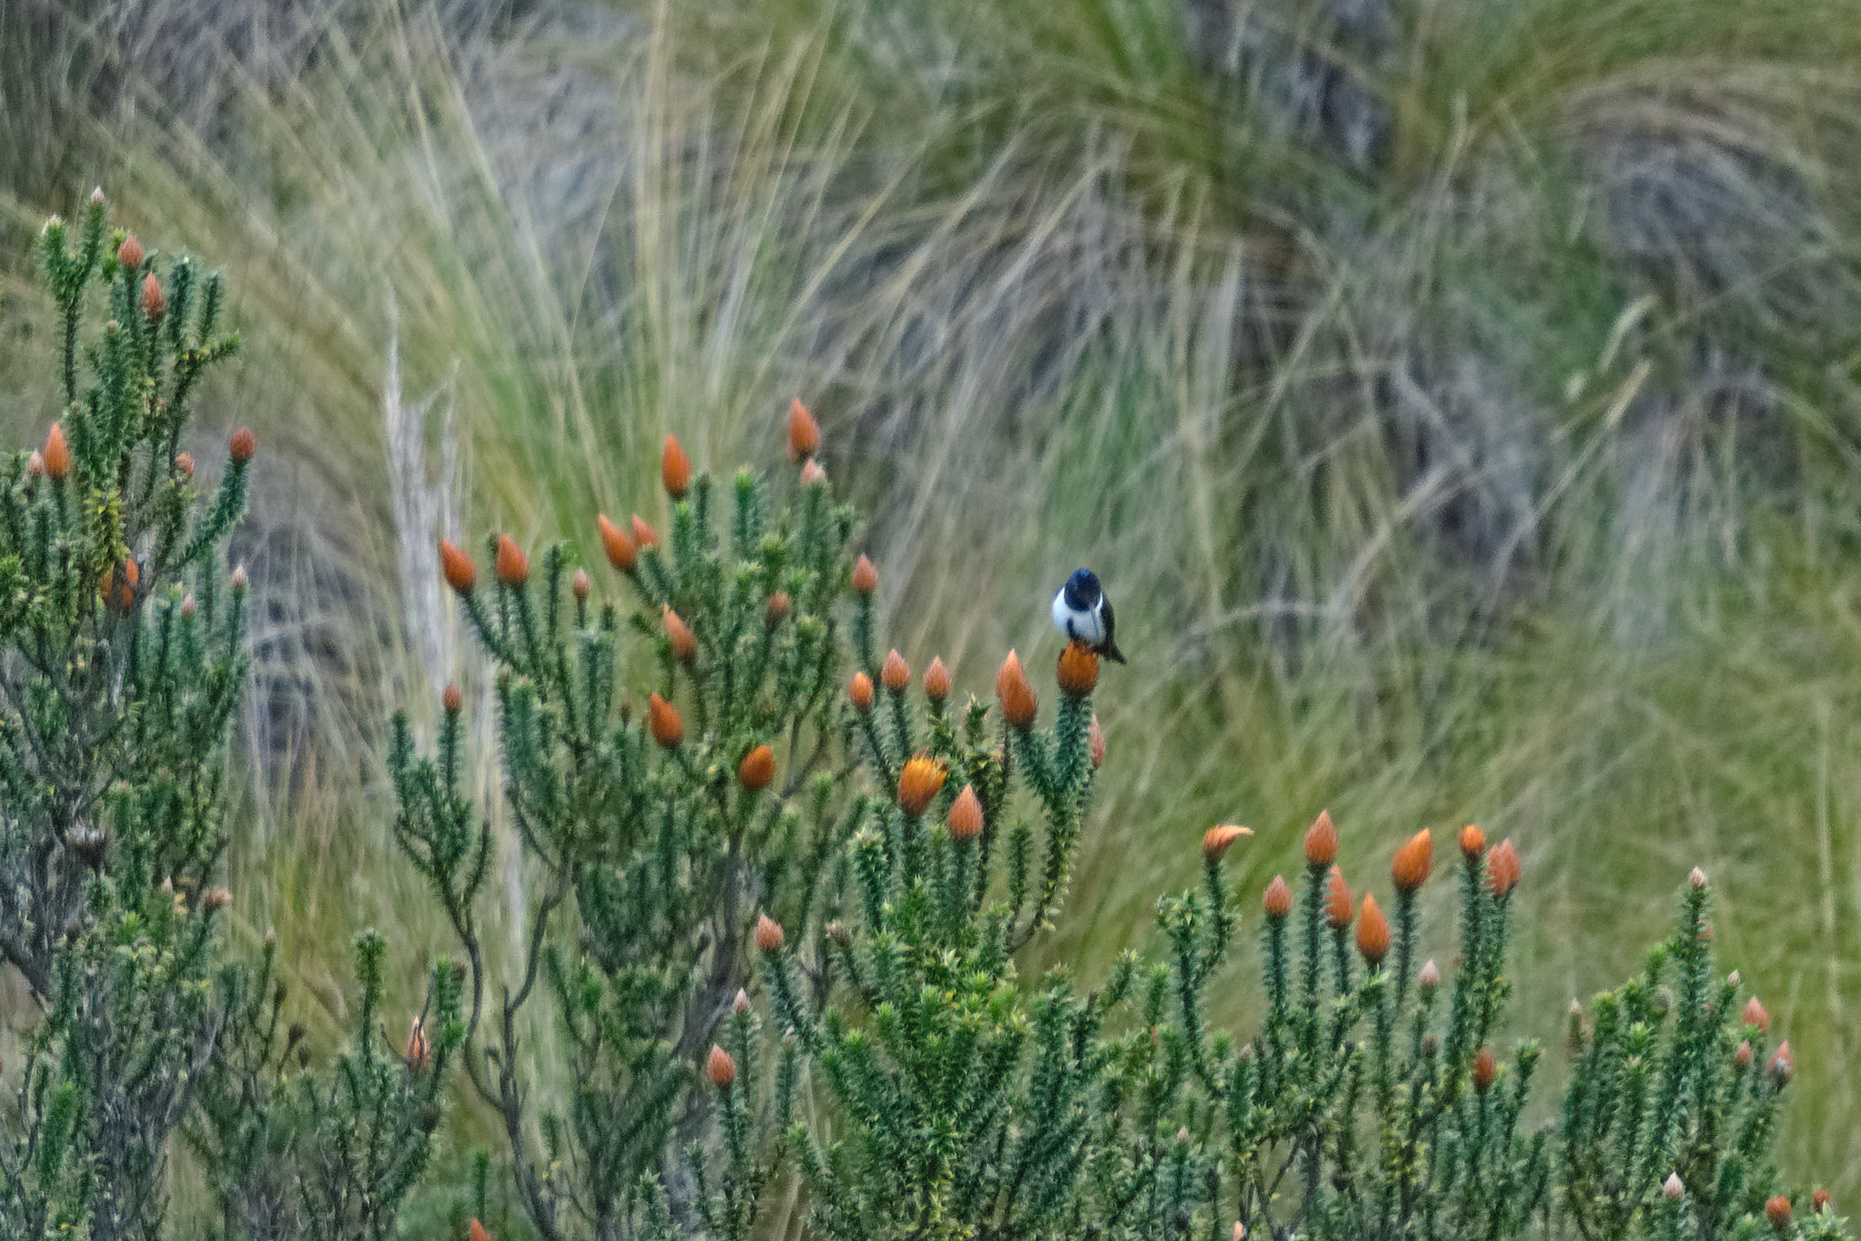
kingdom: Animalia
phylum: Chordata
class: Aves
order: Apodiformes
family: Trochilidae
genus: Oreotrochilus
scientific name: Oreotrochilus chimborazo
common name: Ecuadorian hillstar
